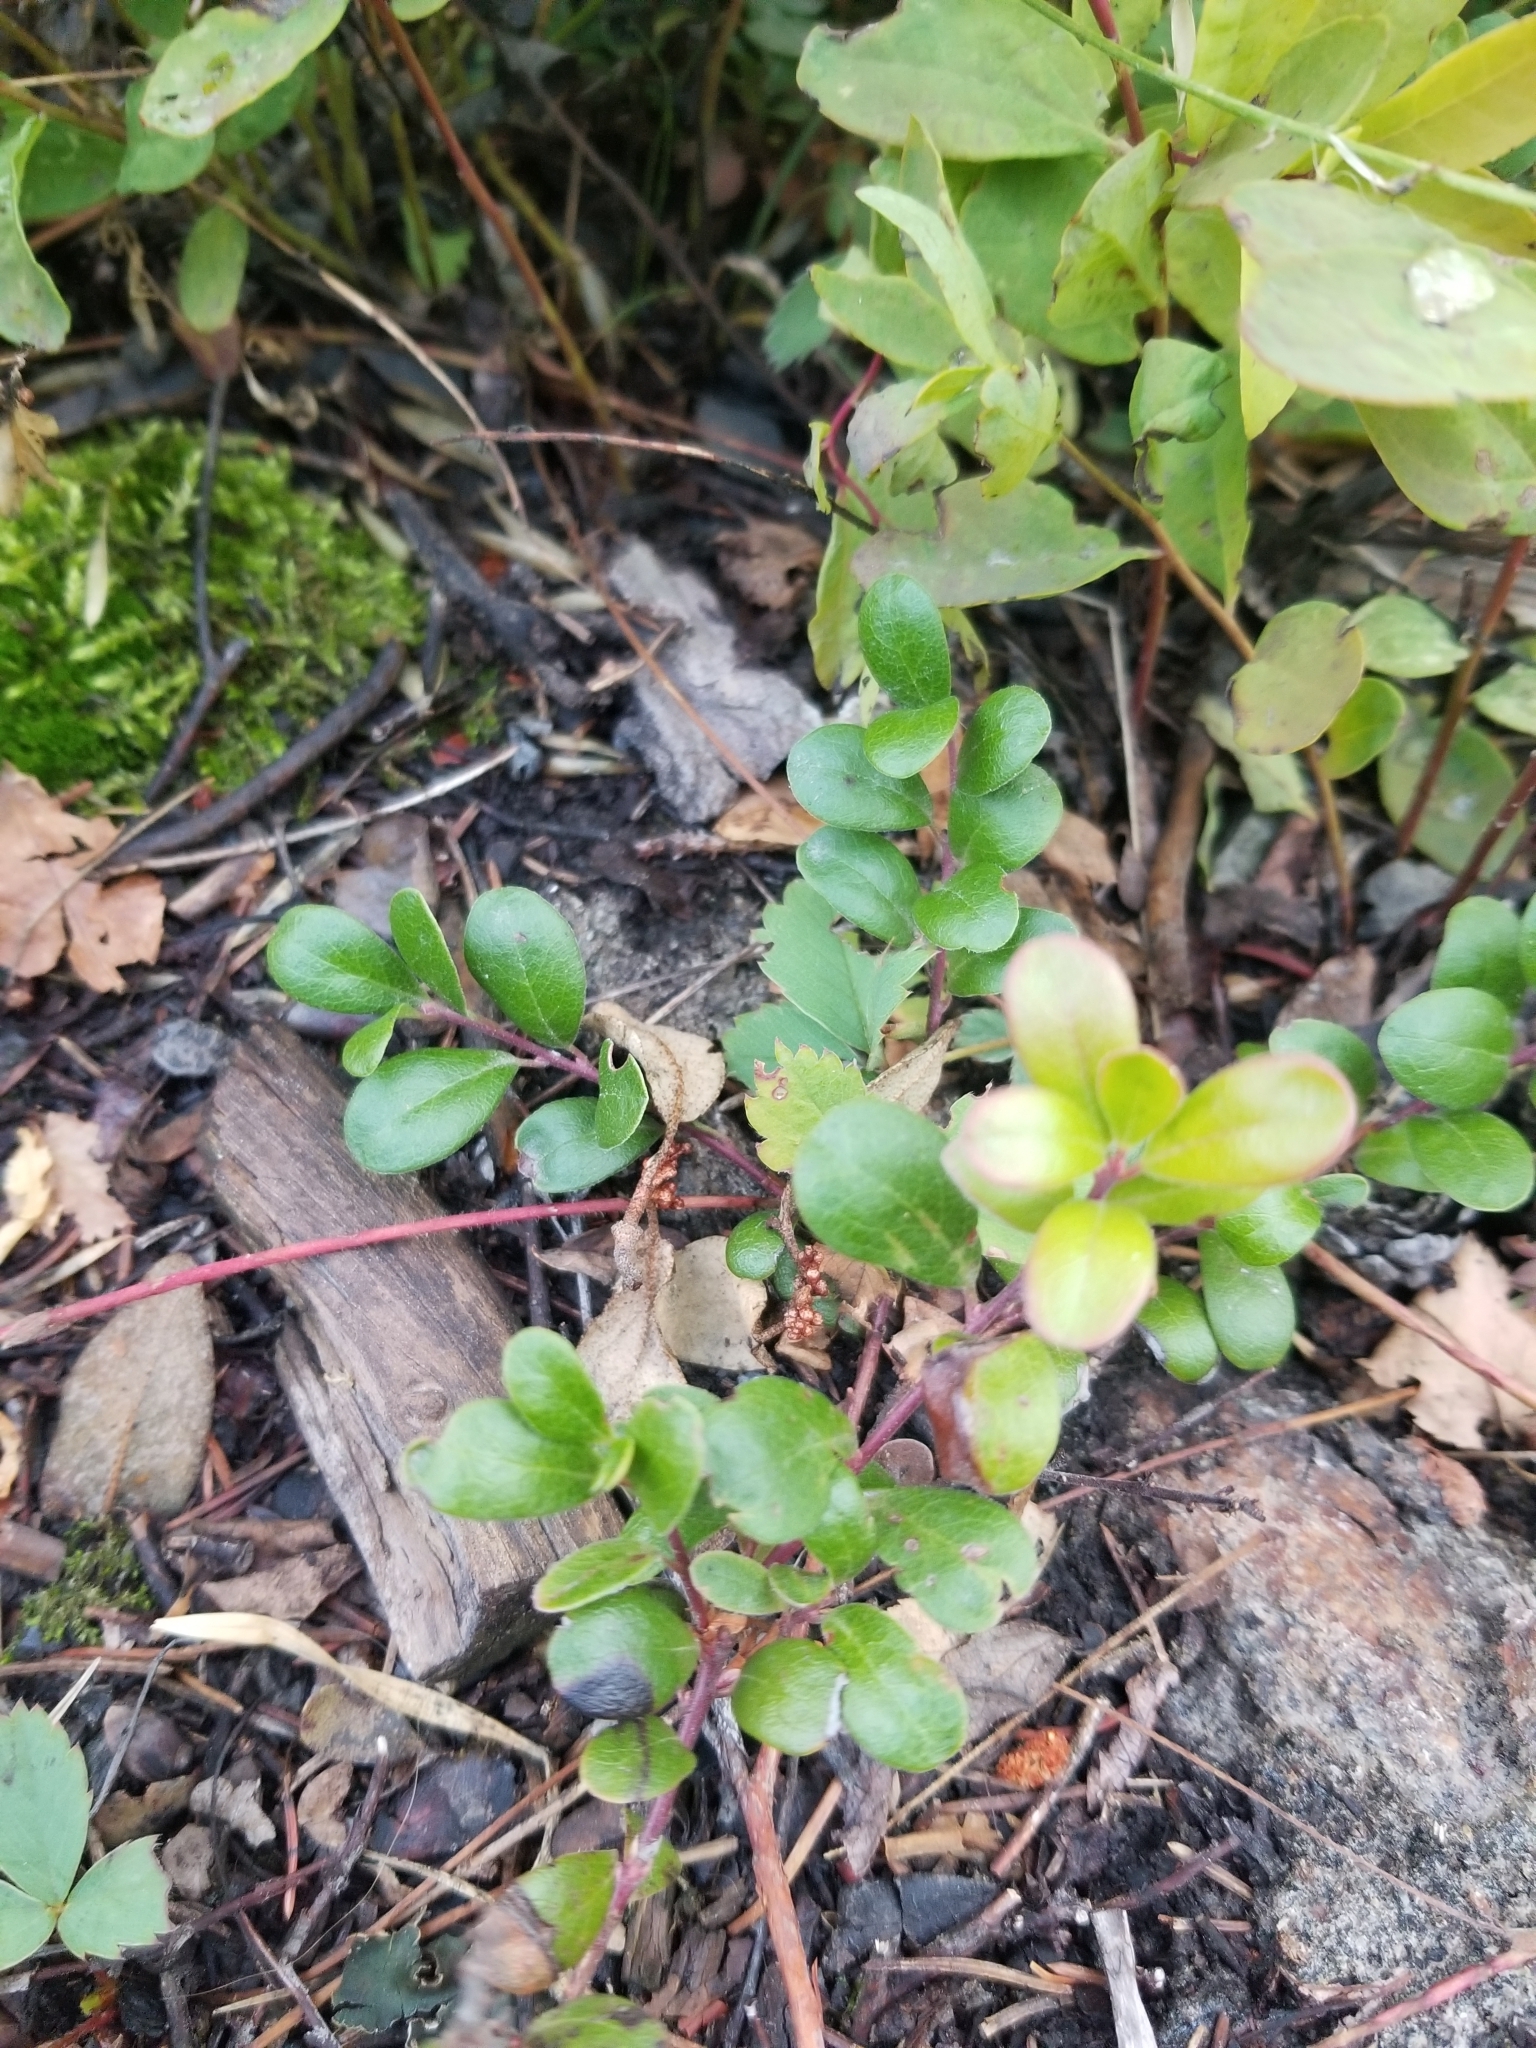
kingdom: Plantae
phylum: Tracheophyta
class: Magnoliopsida
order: Ericales
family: Ericaceae
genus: Arctostaphylos
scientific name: Arctostaphylos uva-ursi
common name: Bearberry
